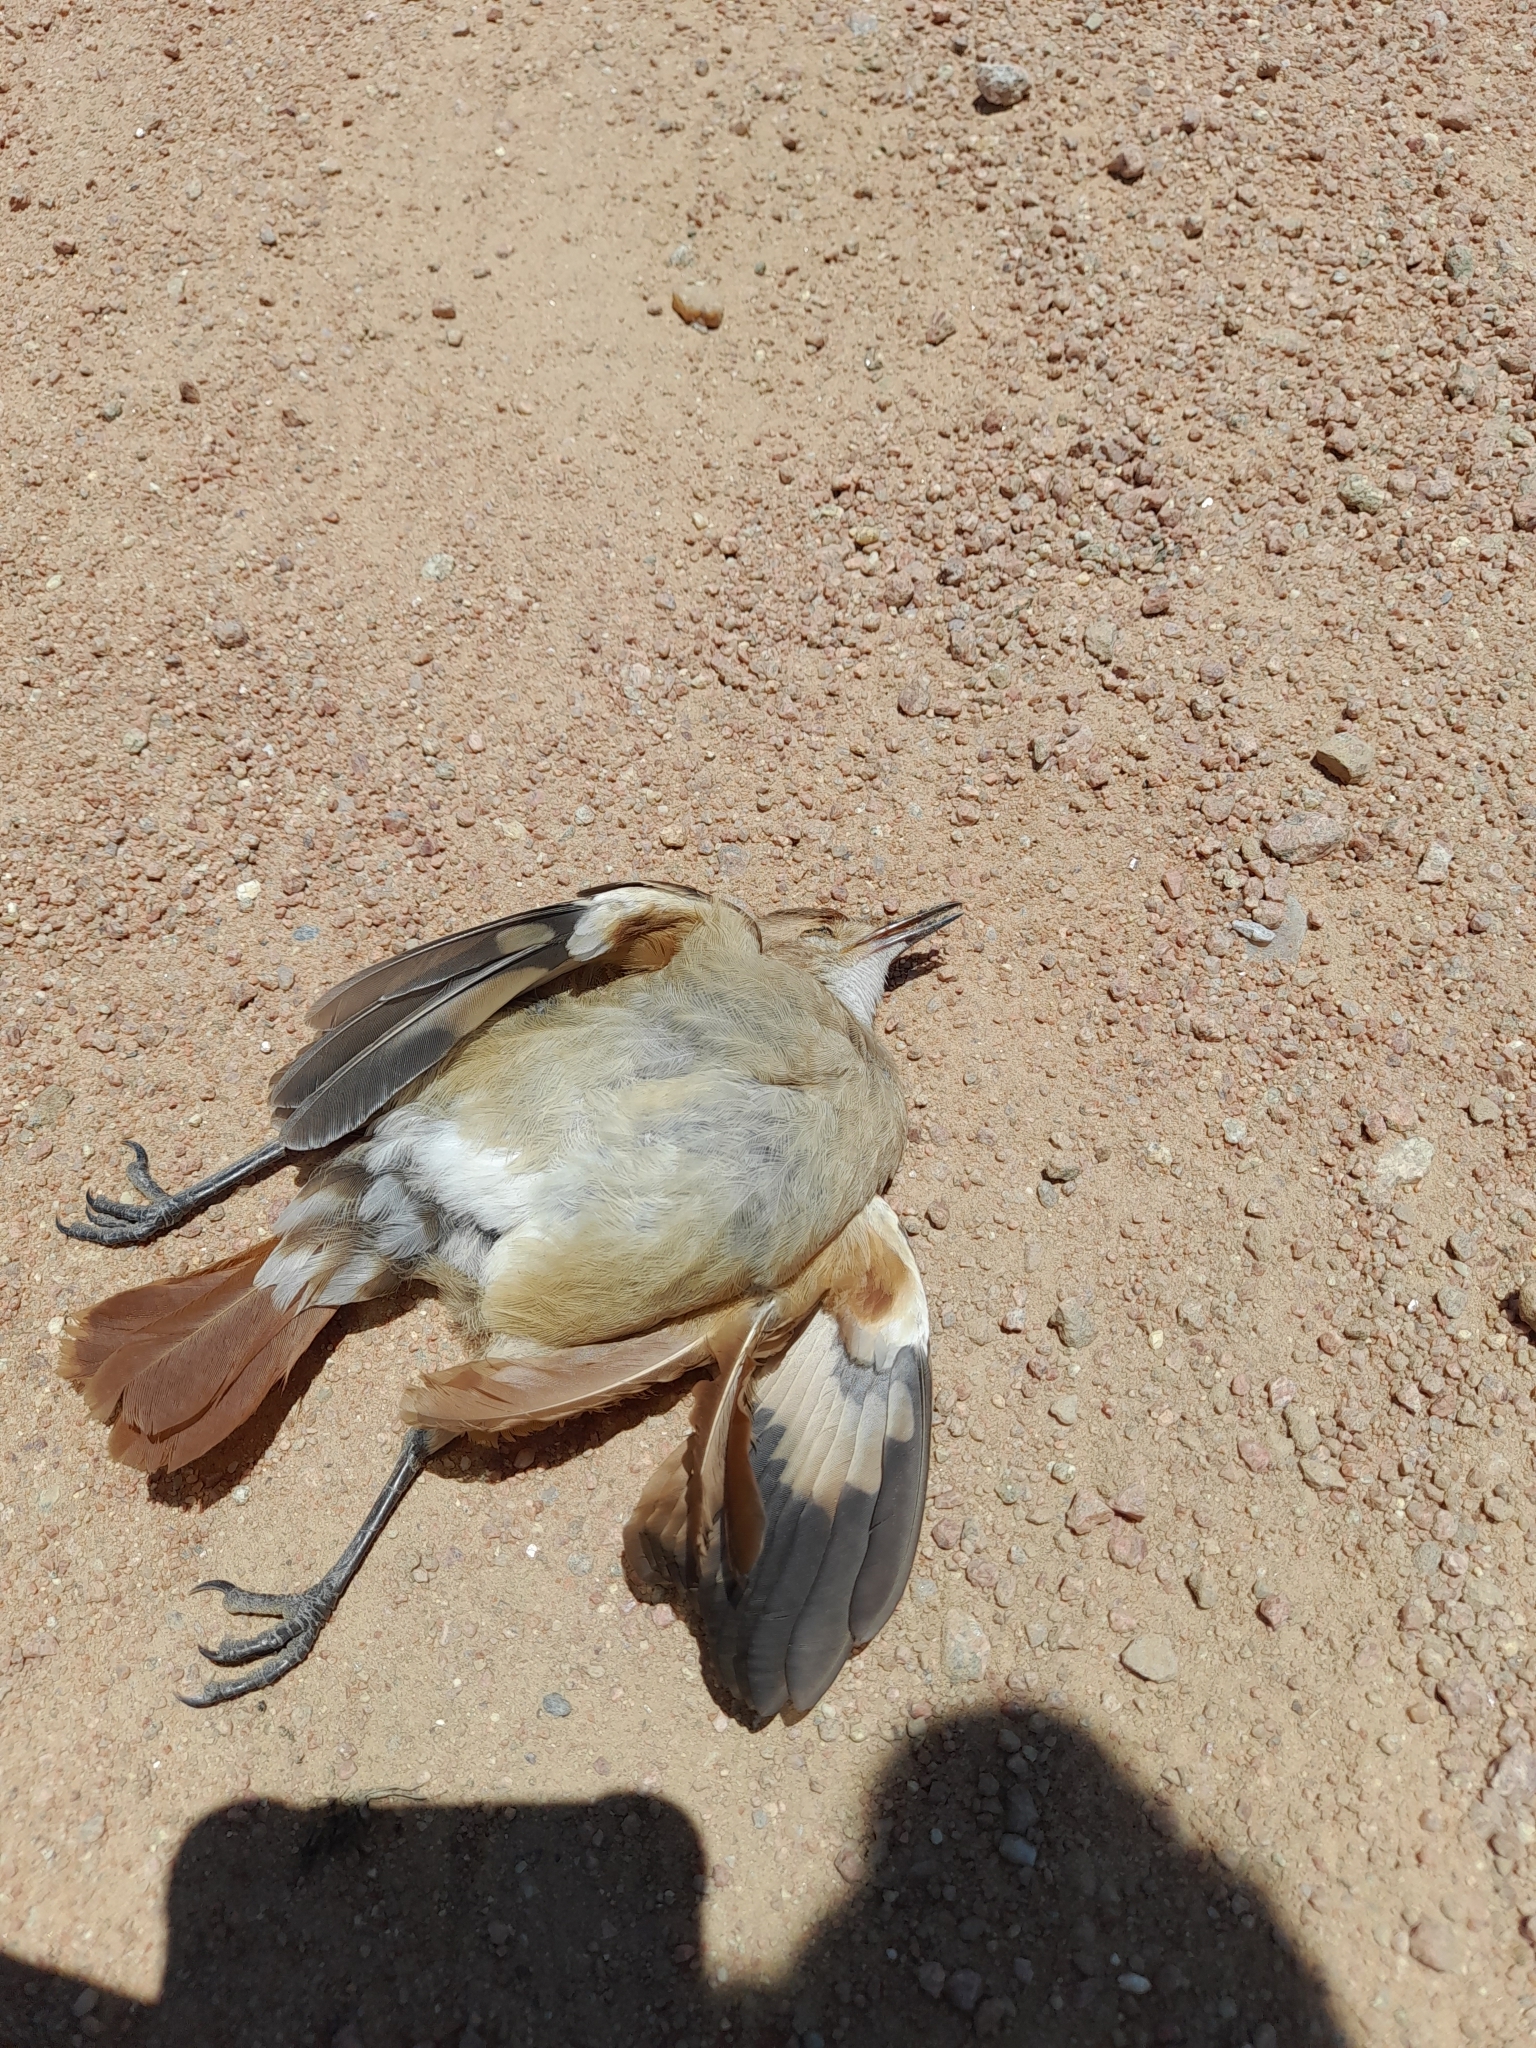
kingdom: Animalia
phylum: Chordata
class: Aves
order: Passeriformes
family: Furnariidae
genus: Furnarius
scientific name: Furnarius rufus
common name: Rufous hornero
